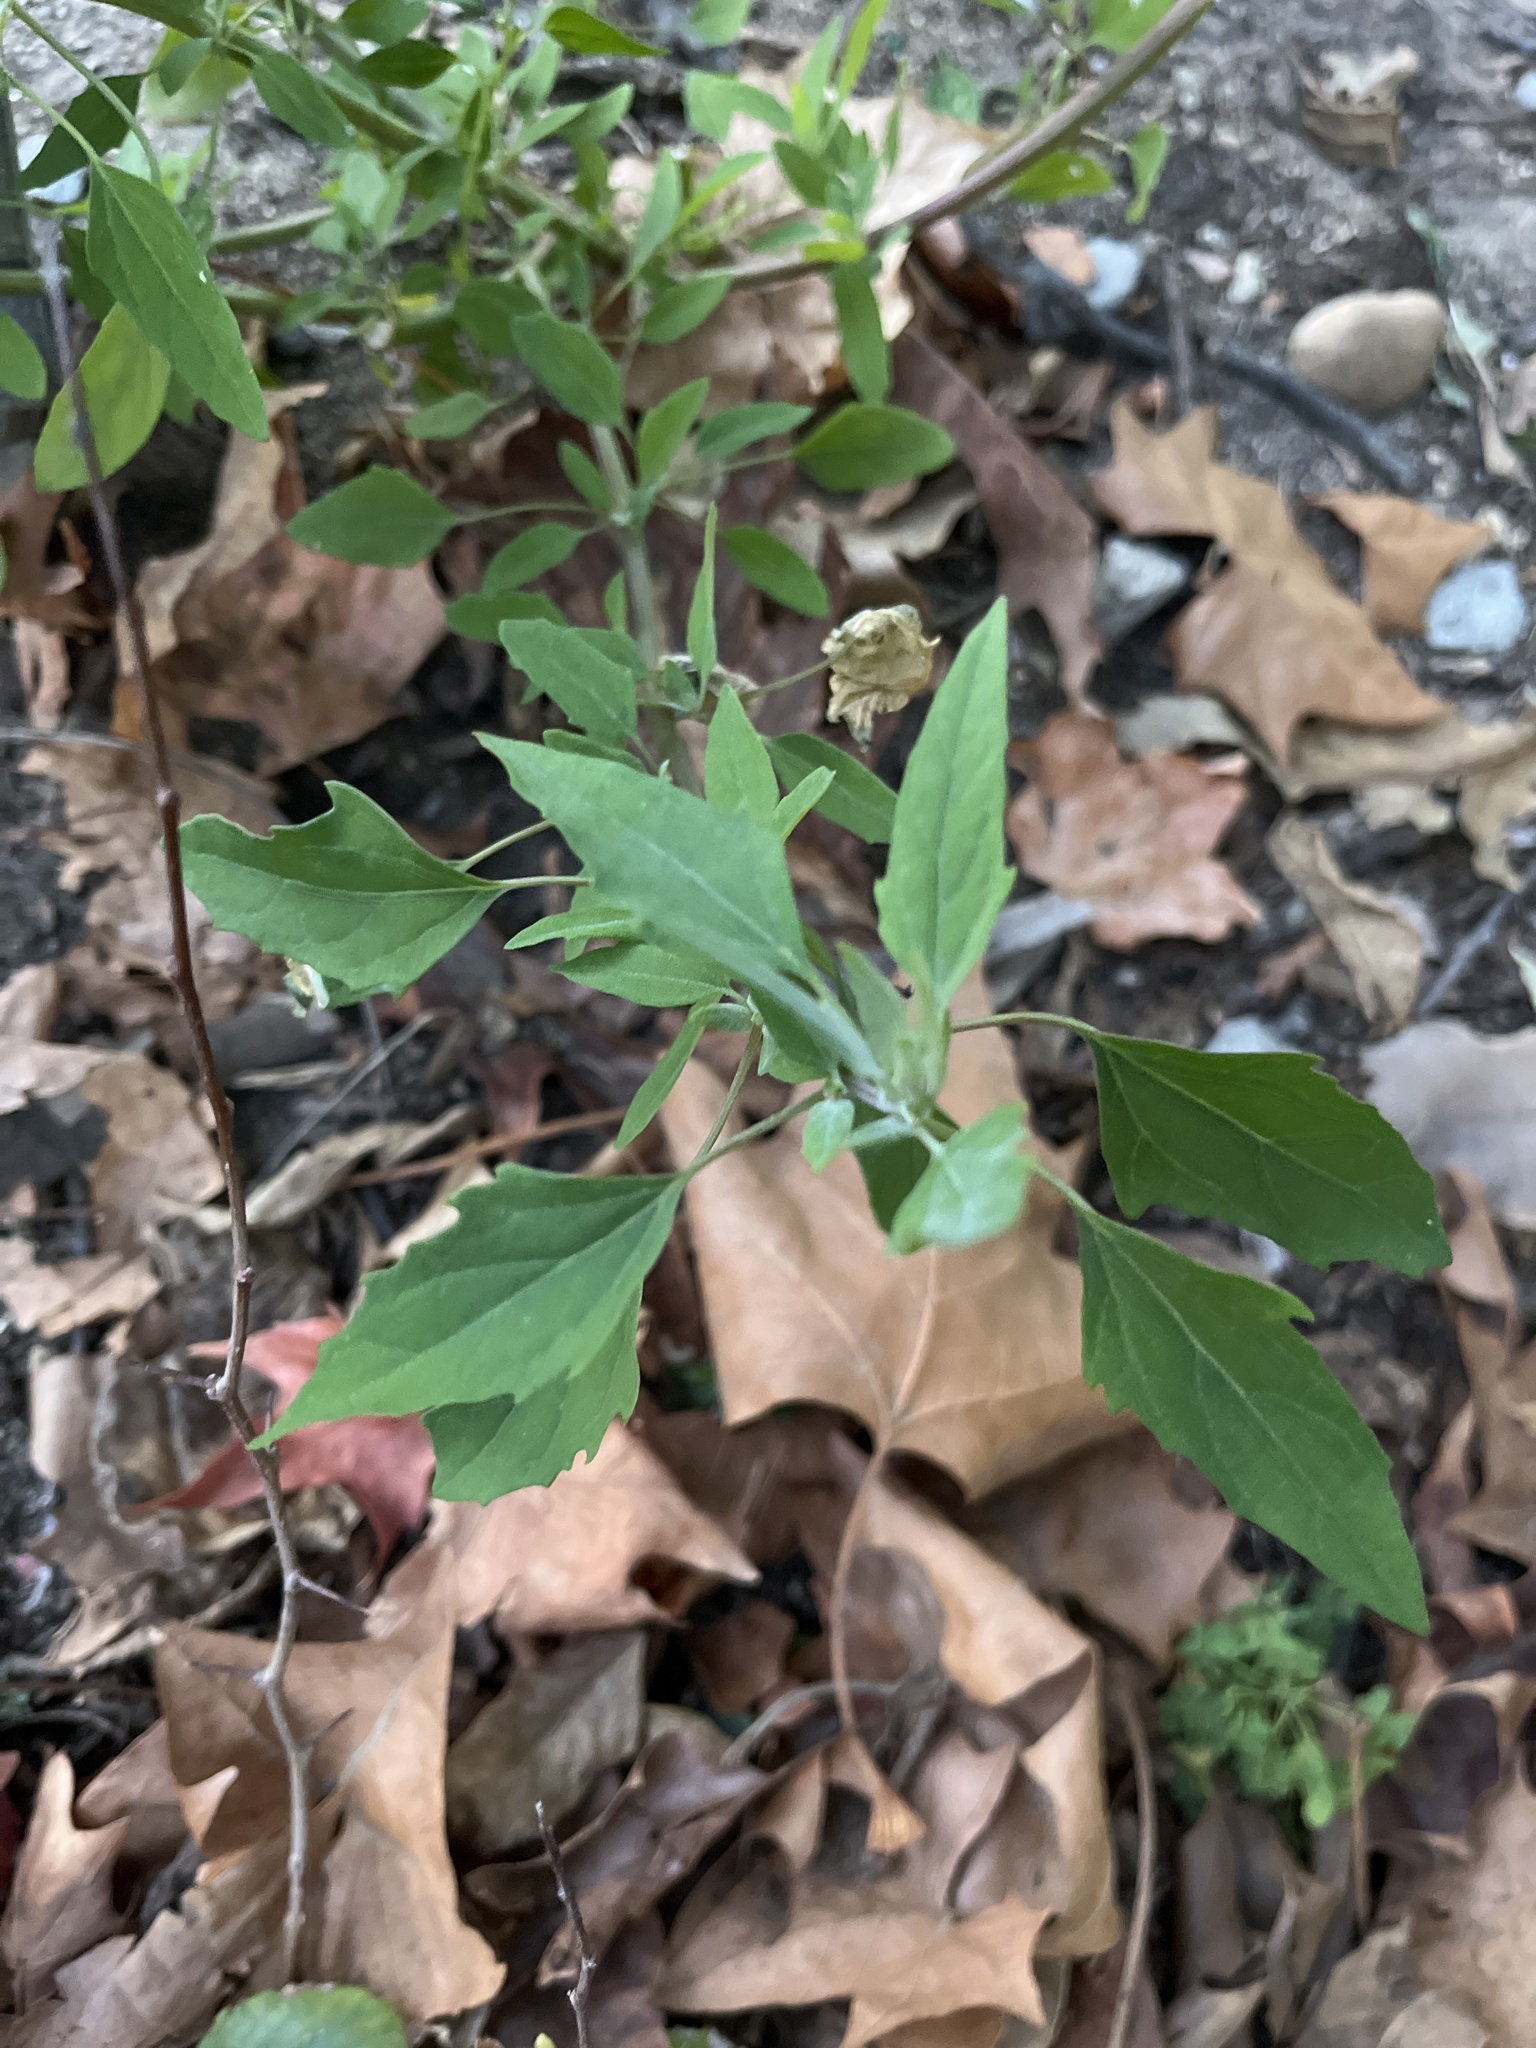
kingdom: Plantae
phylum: Tracheophyta
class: Magnoliopsida
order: Caryophyllales
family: Amaranthaceae
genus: Chenopodium
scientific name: Chenopodium album
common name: Fat-hen
